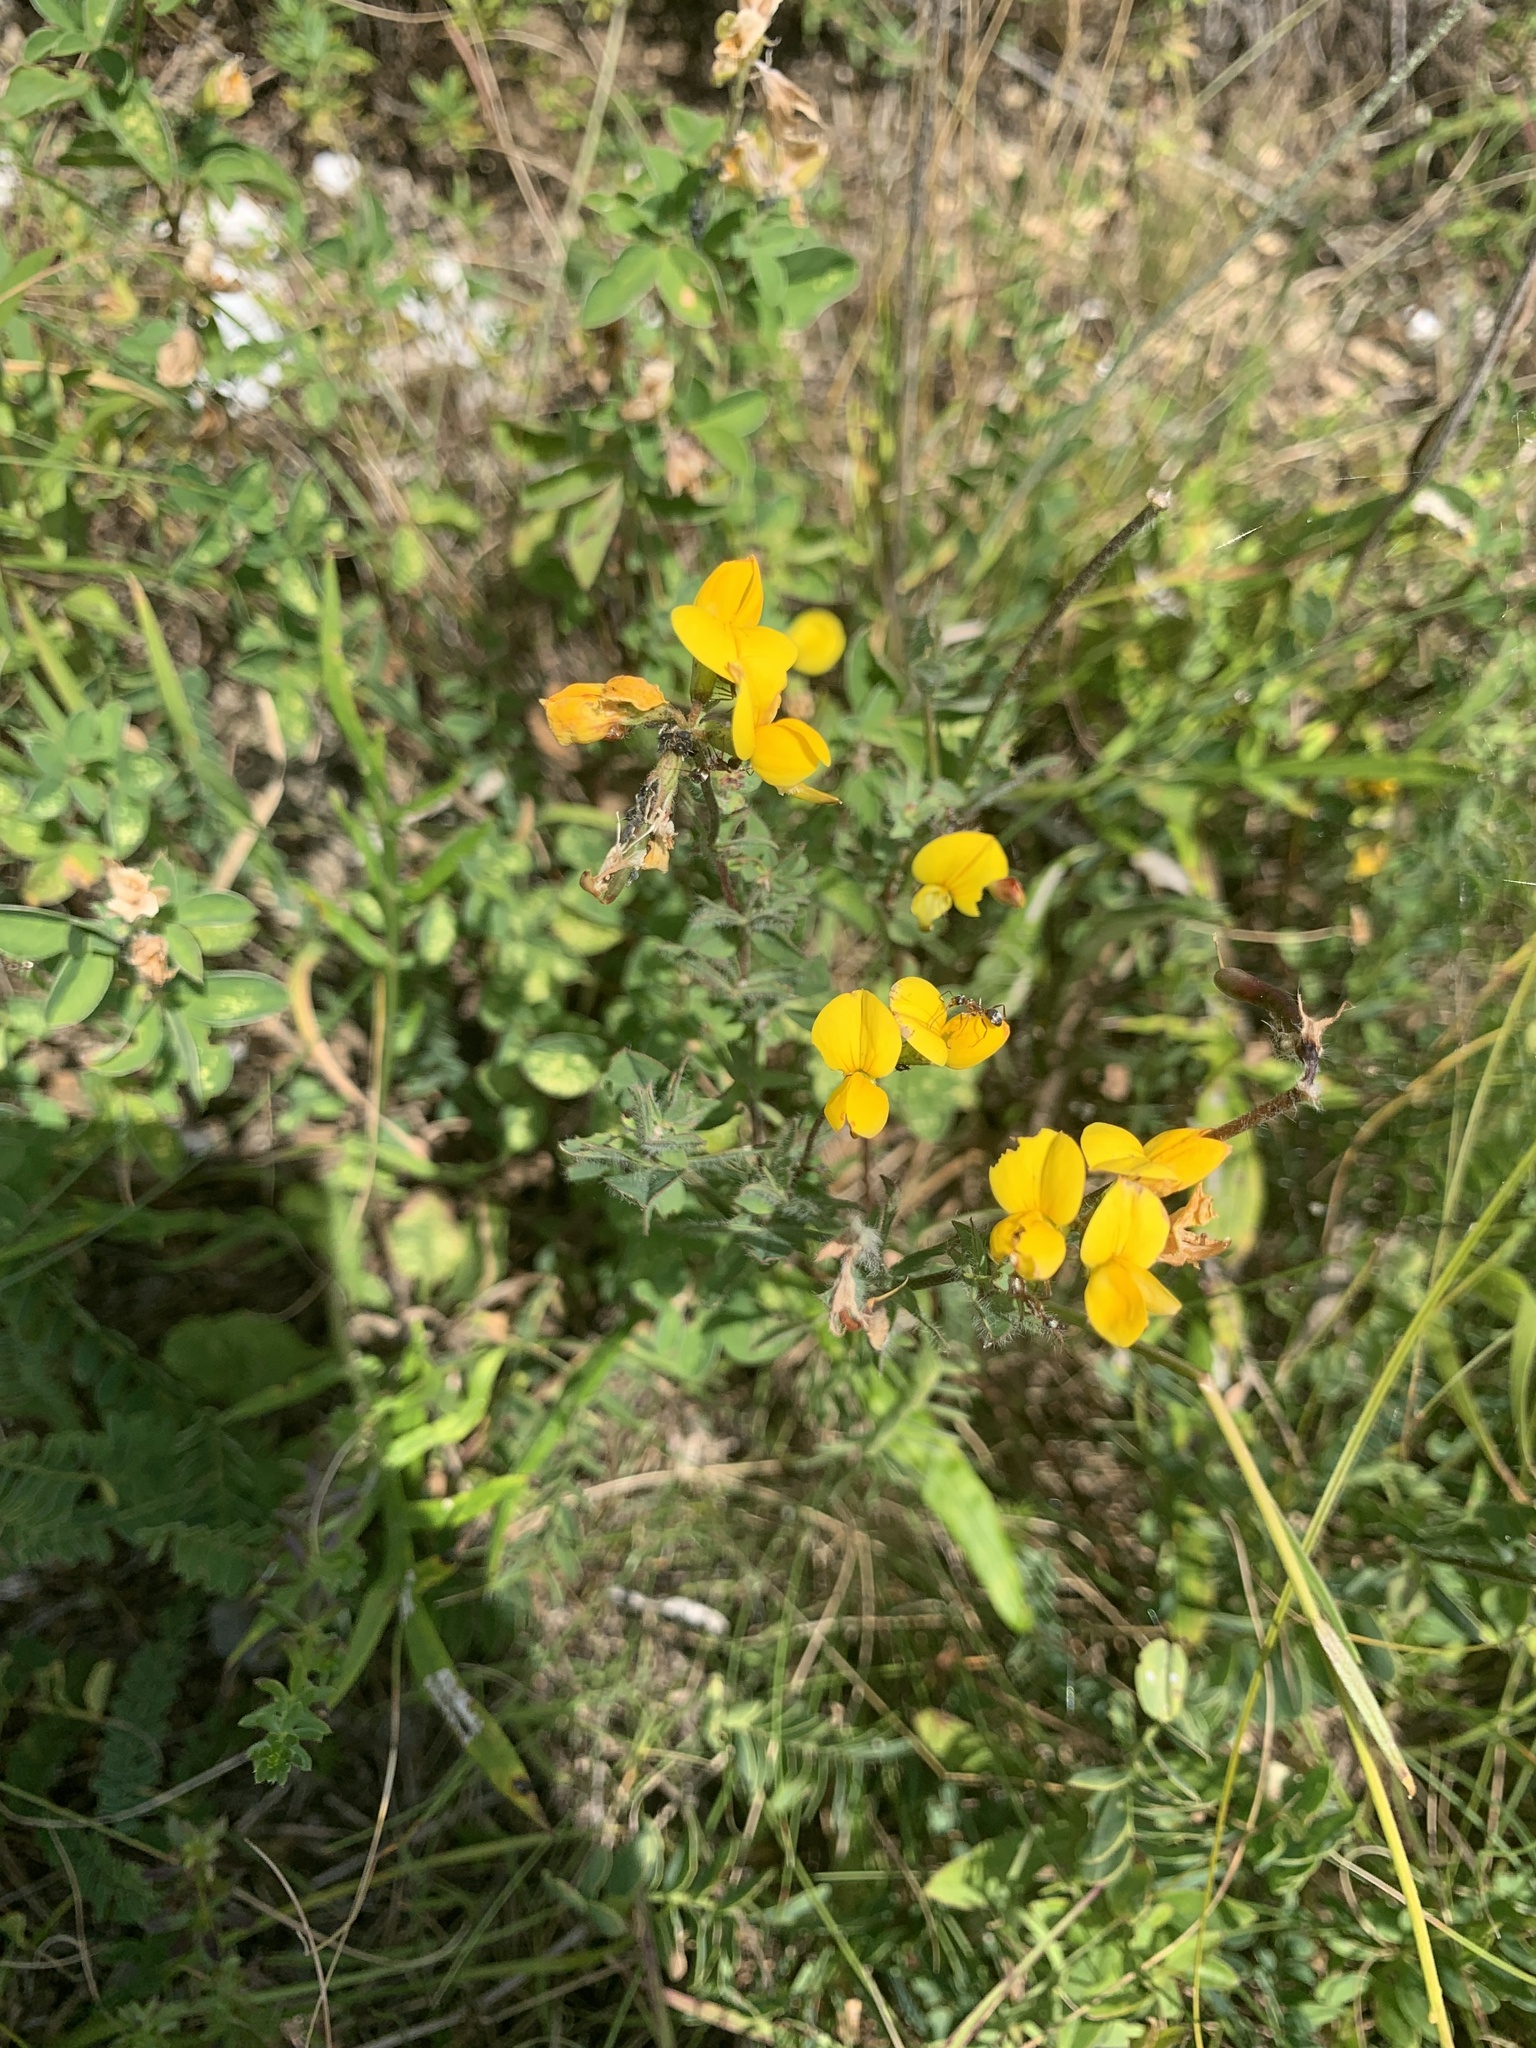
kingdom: Plantae
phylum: Tracheophyta
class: Magnoliopsida
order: Fabales
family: Fabaceae
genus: Lotus
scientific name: Lotus corniculatus
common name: Common bird's-foot-trefoil
